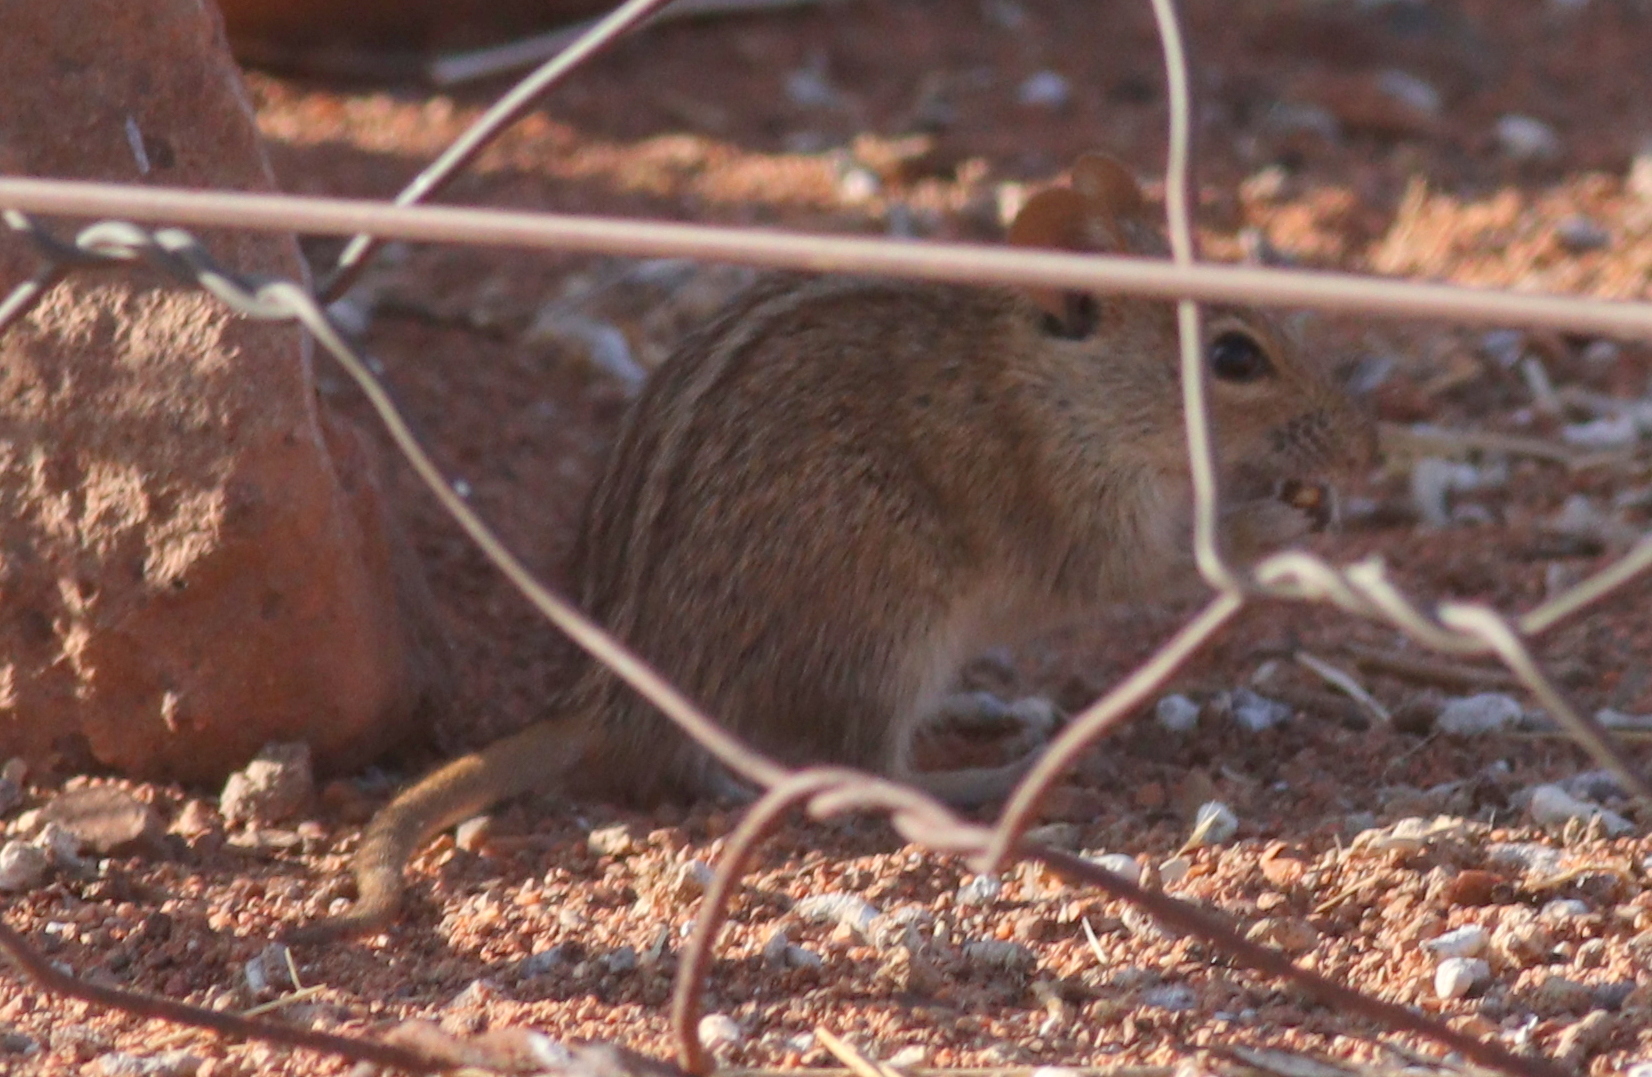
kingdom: Animalia
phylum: Chordata
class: Mammalia
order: Rodentia
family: Muridae
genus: Rhabdomys
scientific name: Rhabdomys pumilio
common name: Xeric four-striped grass rat
